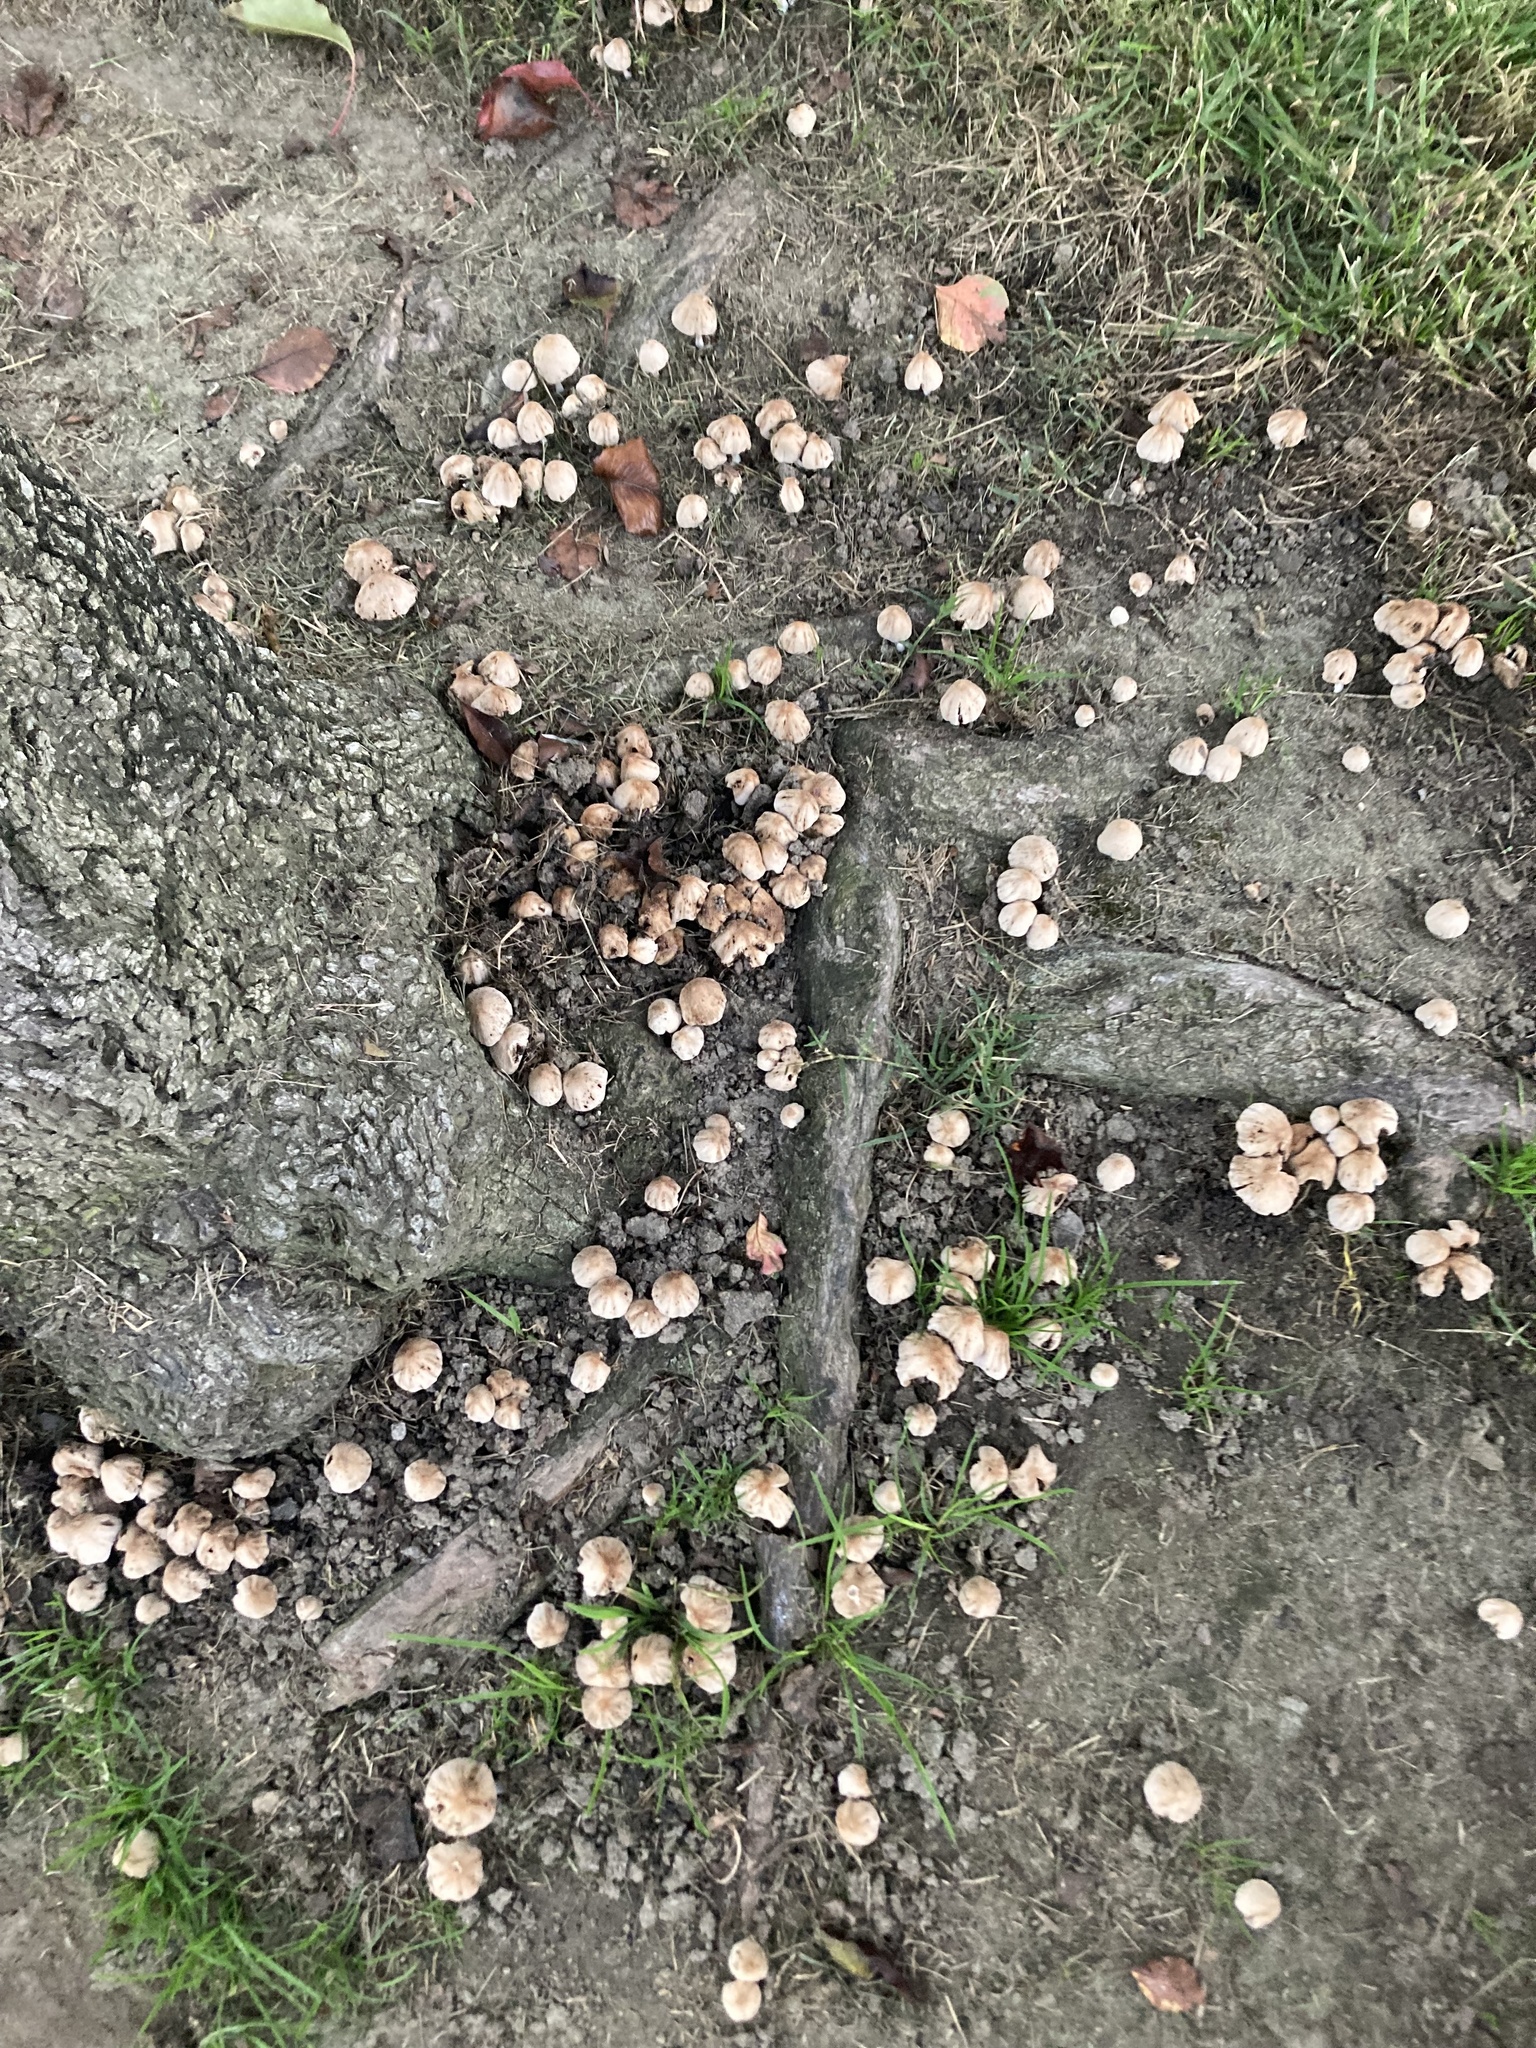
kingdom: Fungi
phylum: Basidiomycota
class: Agaricomycetes
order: Agaricales
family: Psathyrellaceae
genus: Coprinellus
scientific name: Coprinellus micaceus
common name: Glistening ink-cap
